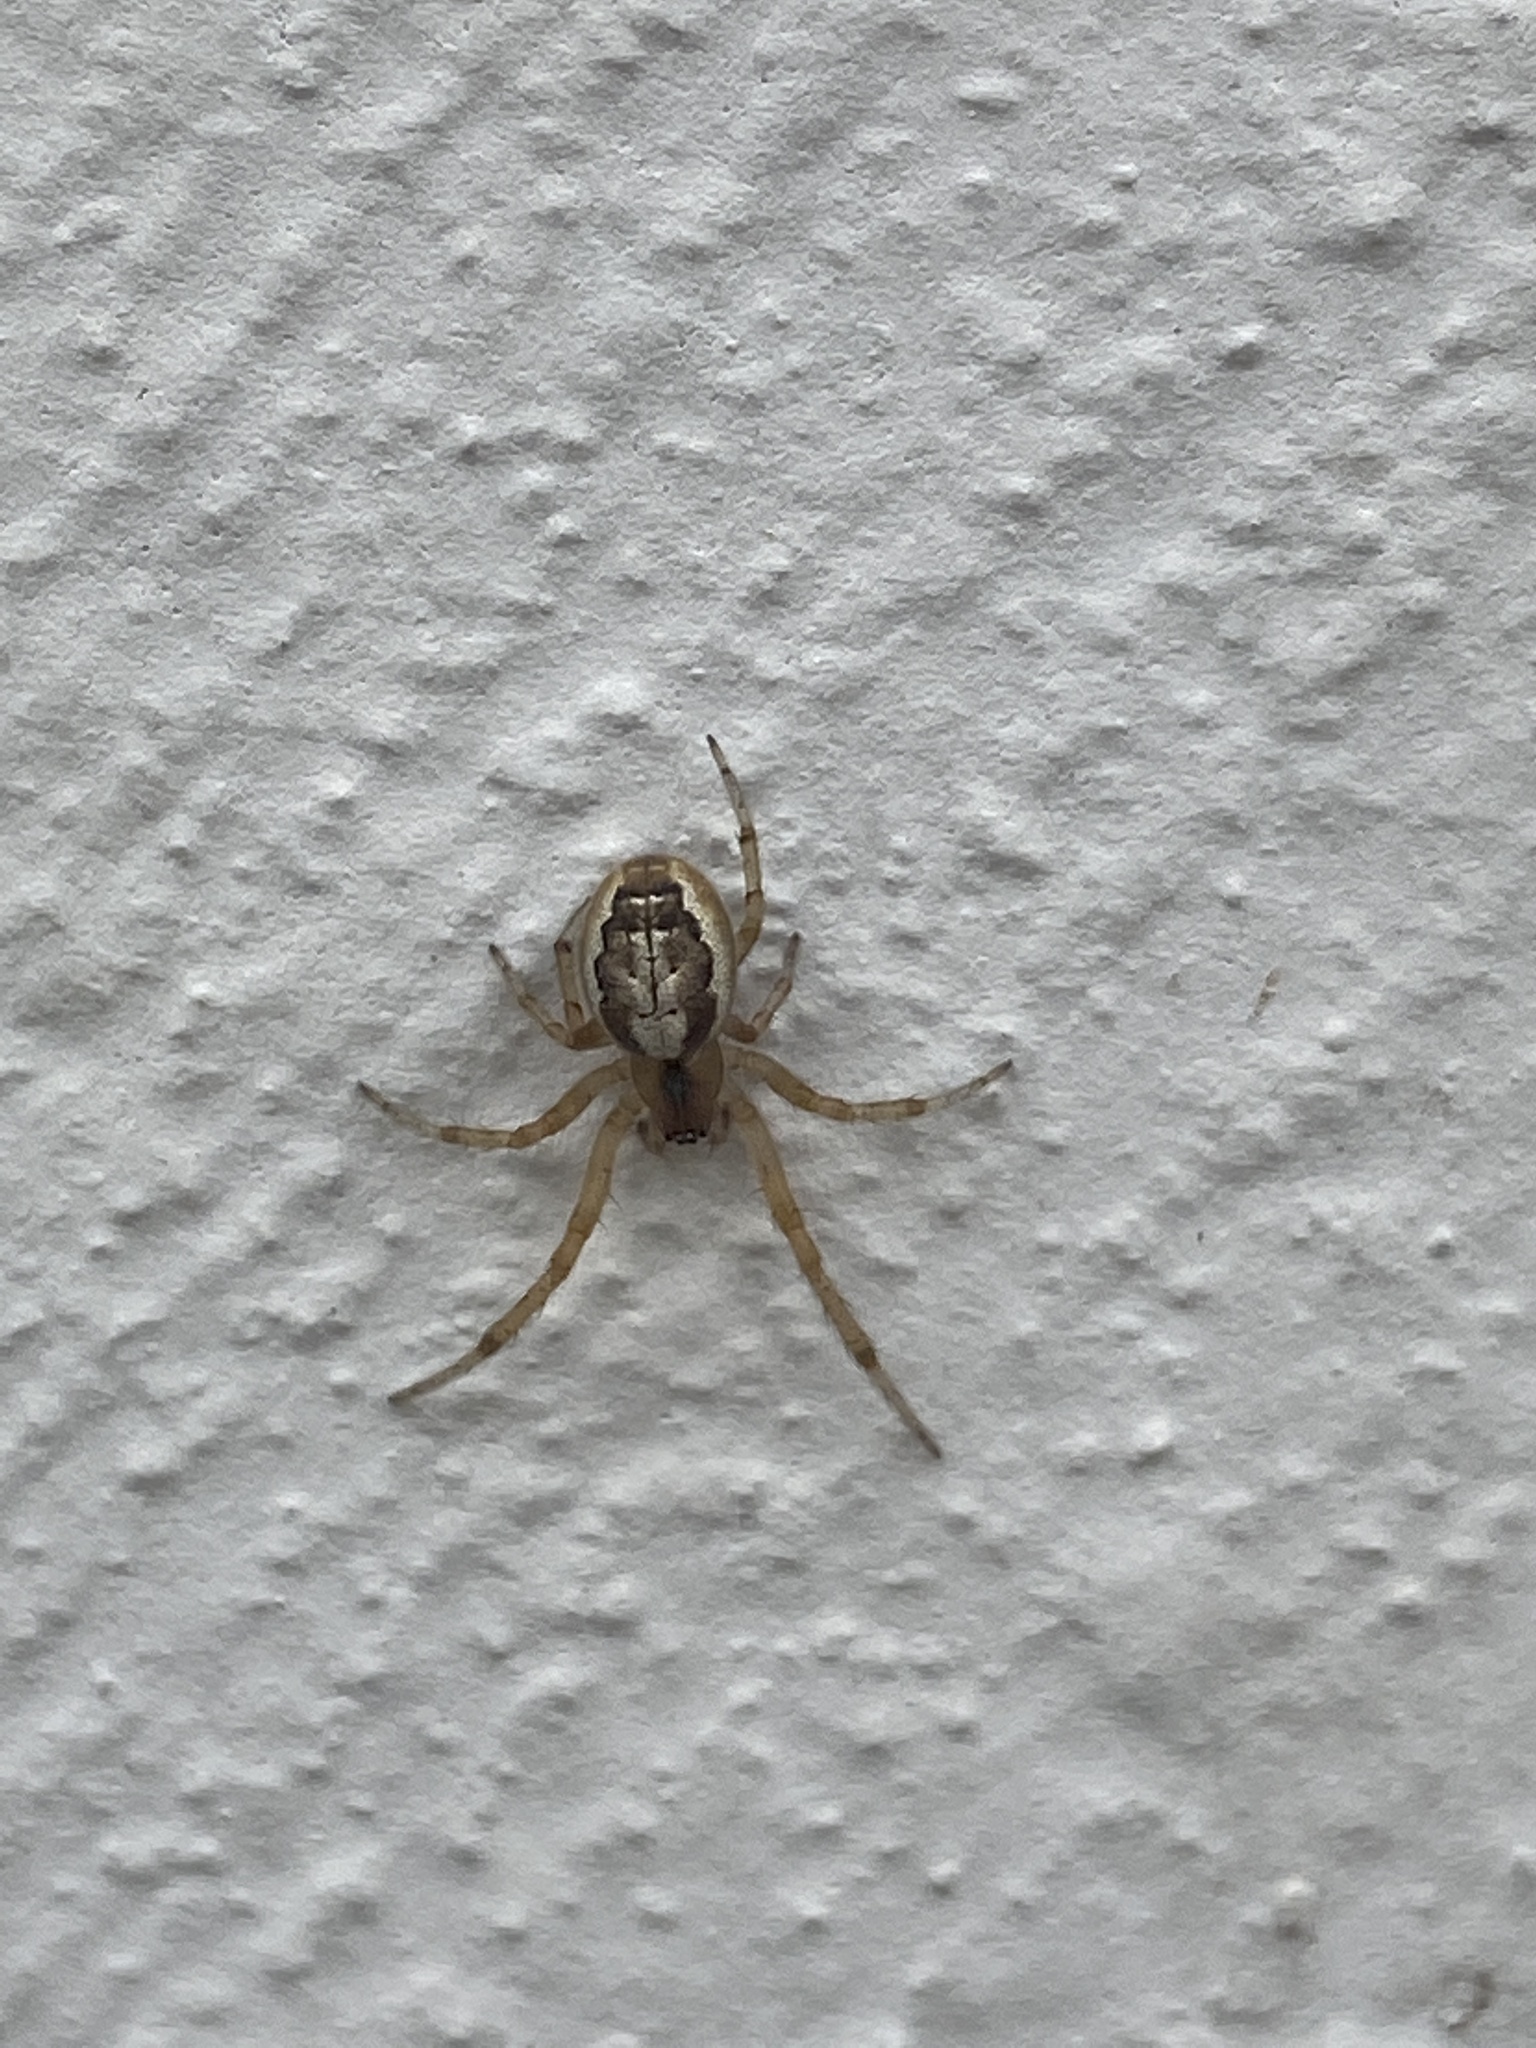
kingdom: Animalia
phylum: Arthropoda
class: Arachnida
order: Araneae
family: Araneidae
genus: Zygiella
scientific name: Zygiella x-notata
